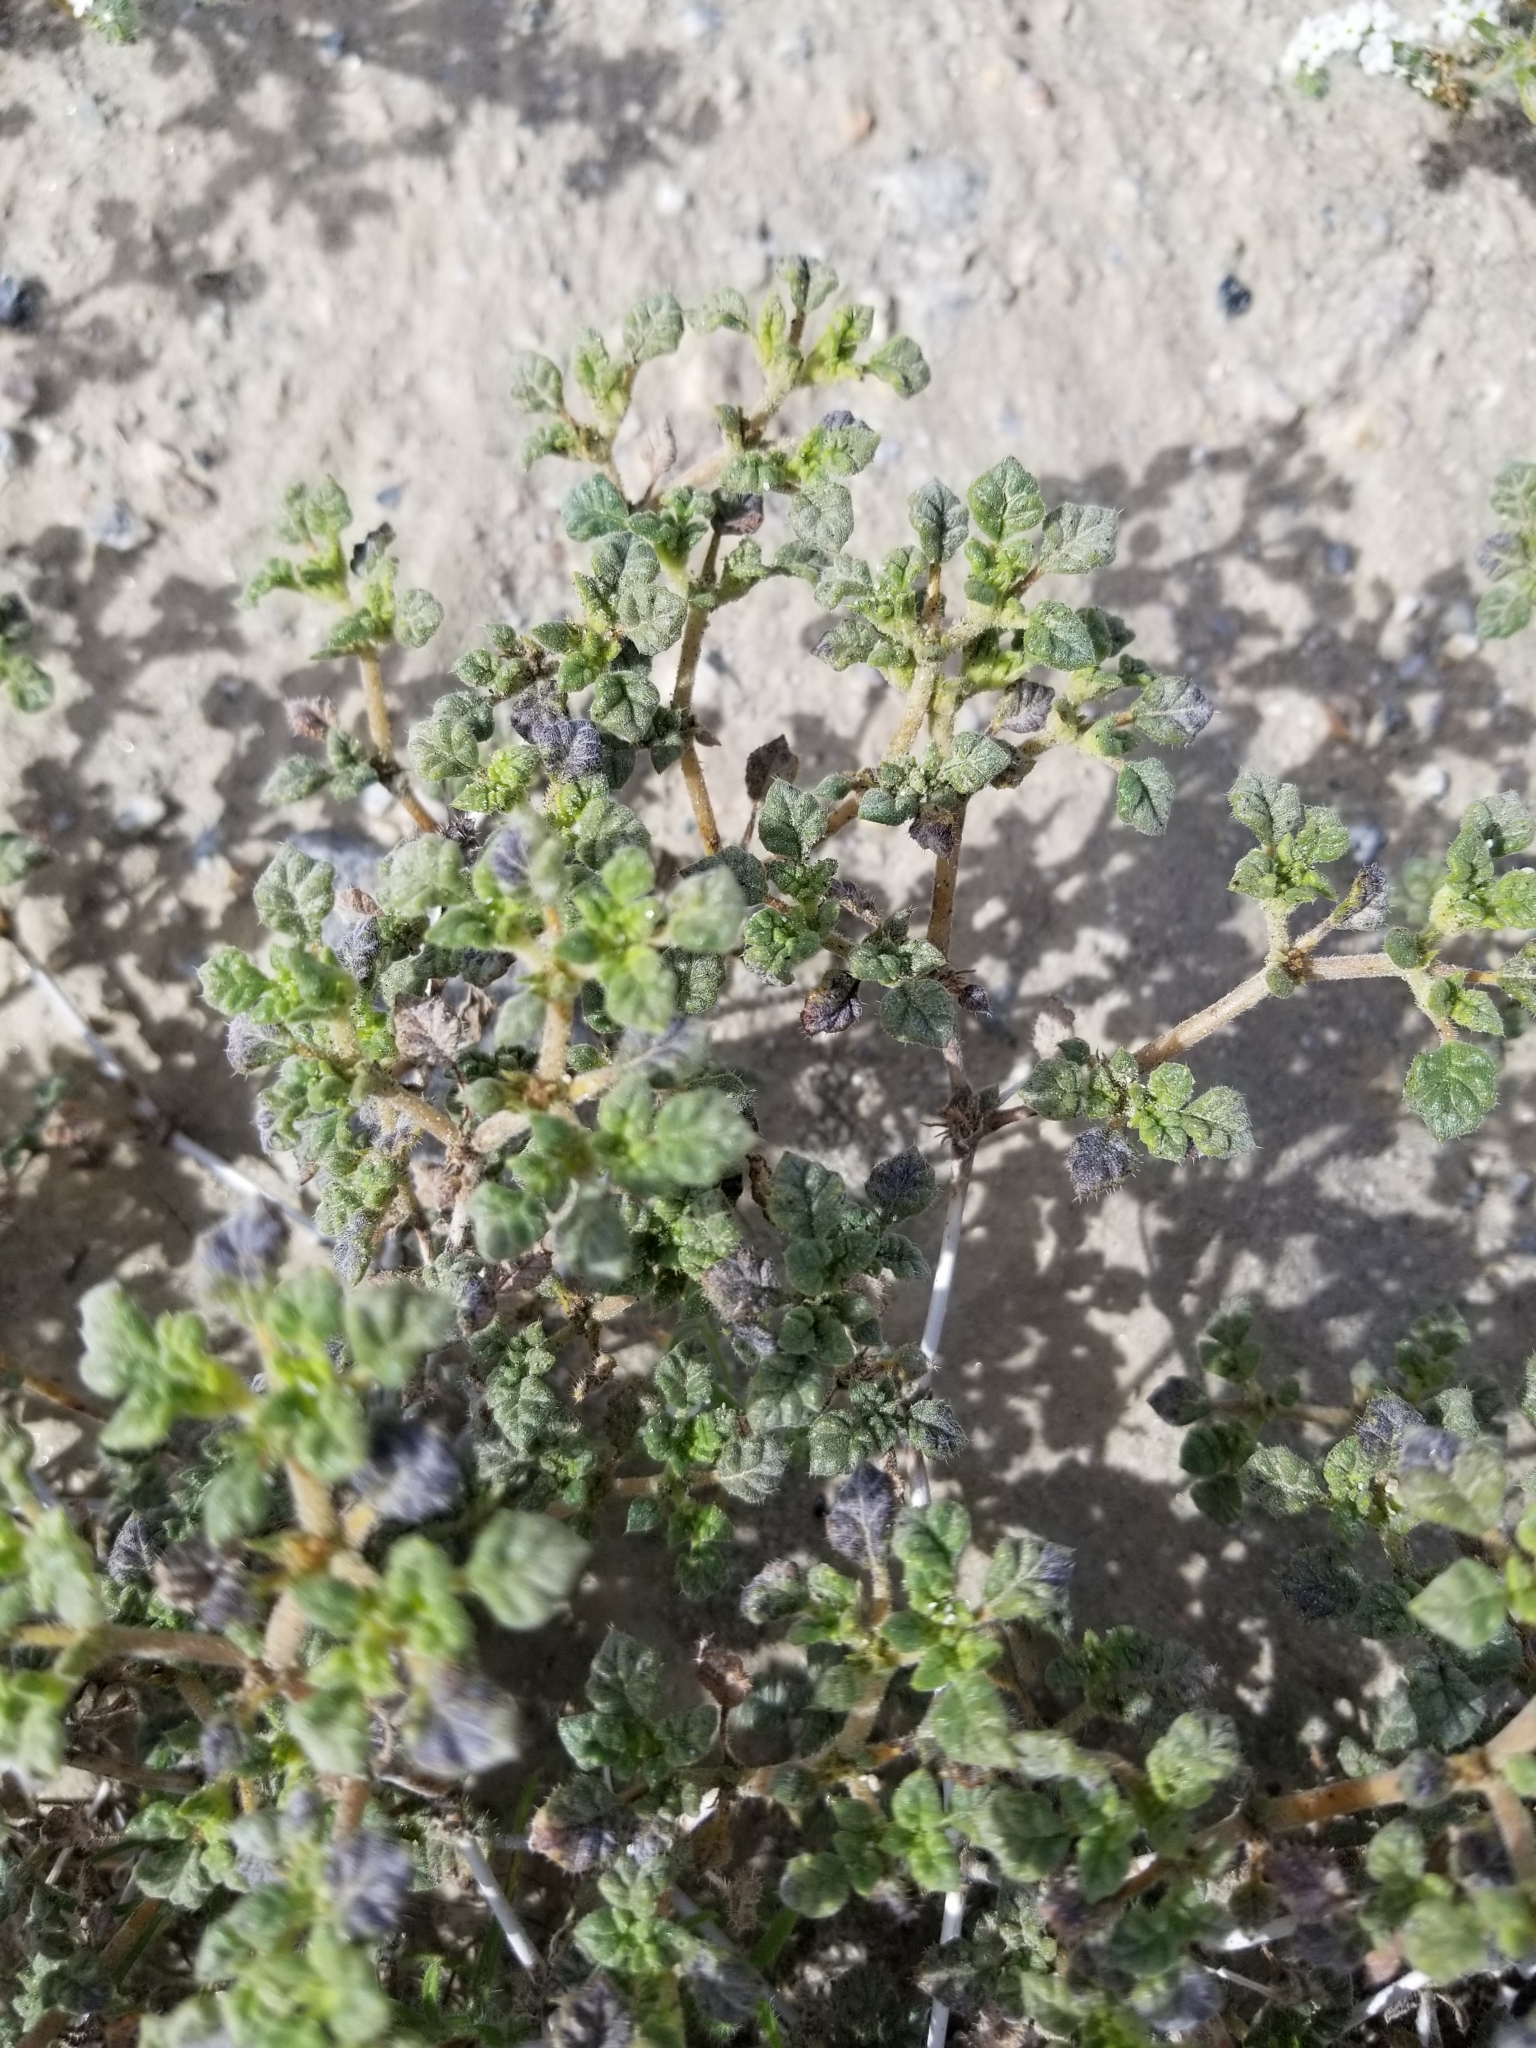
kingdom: Plantae
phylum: Tracheophyta
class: Magnoliopsida
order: Boraginales
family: Ehretiaceae
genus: Tiquilia
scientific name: Tiquilia palmeri
